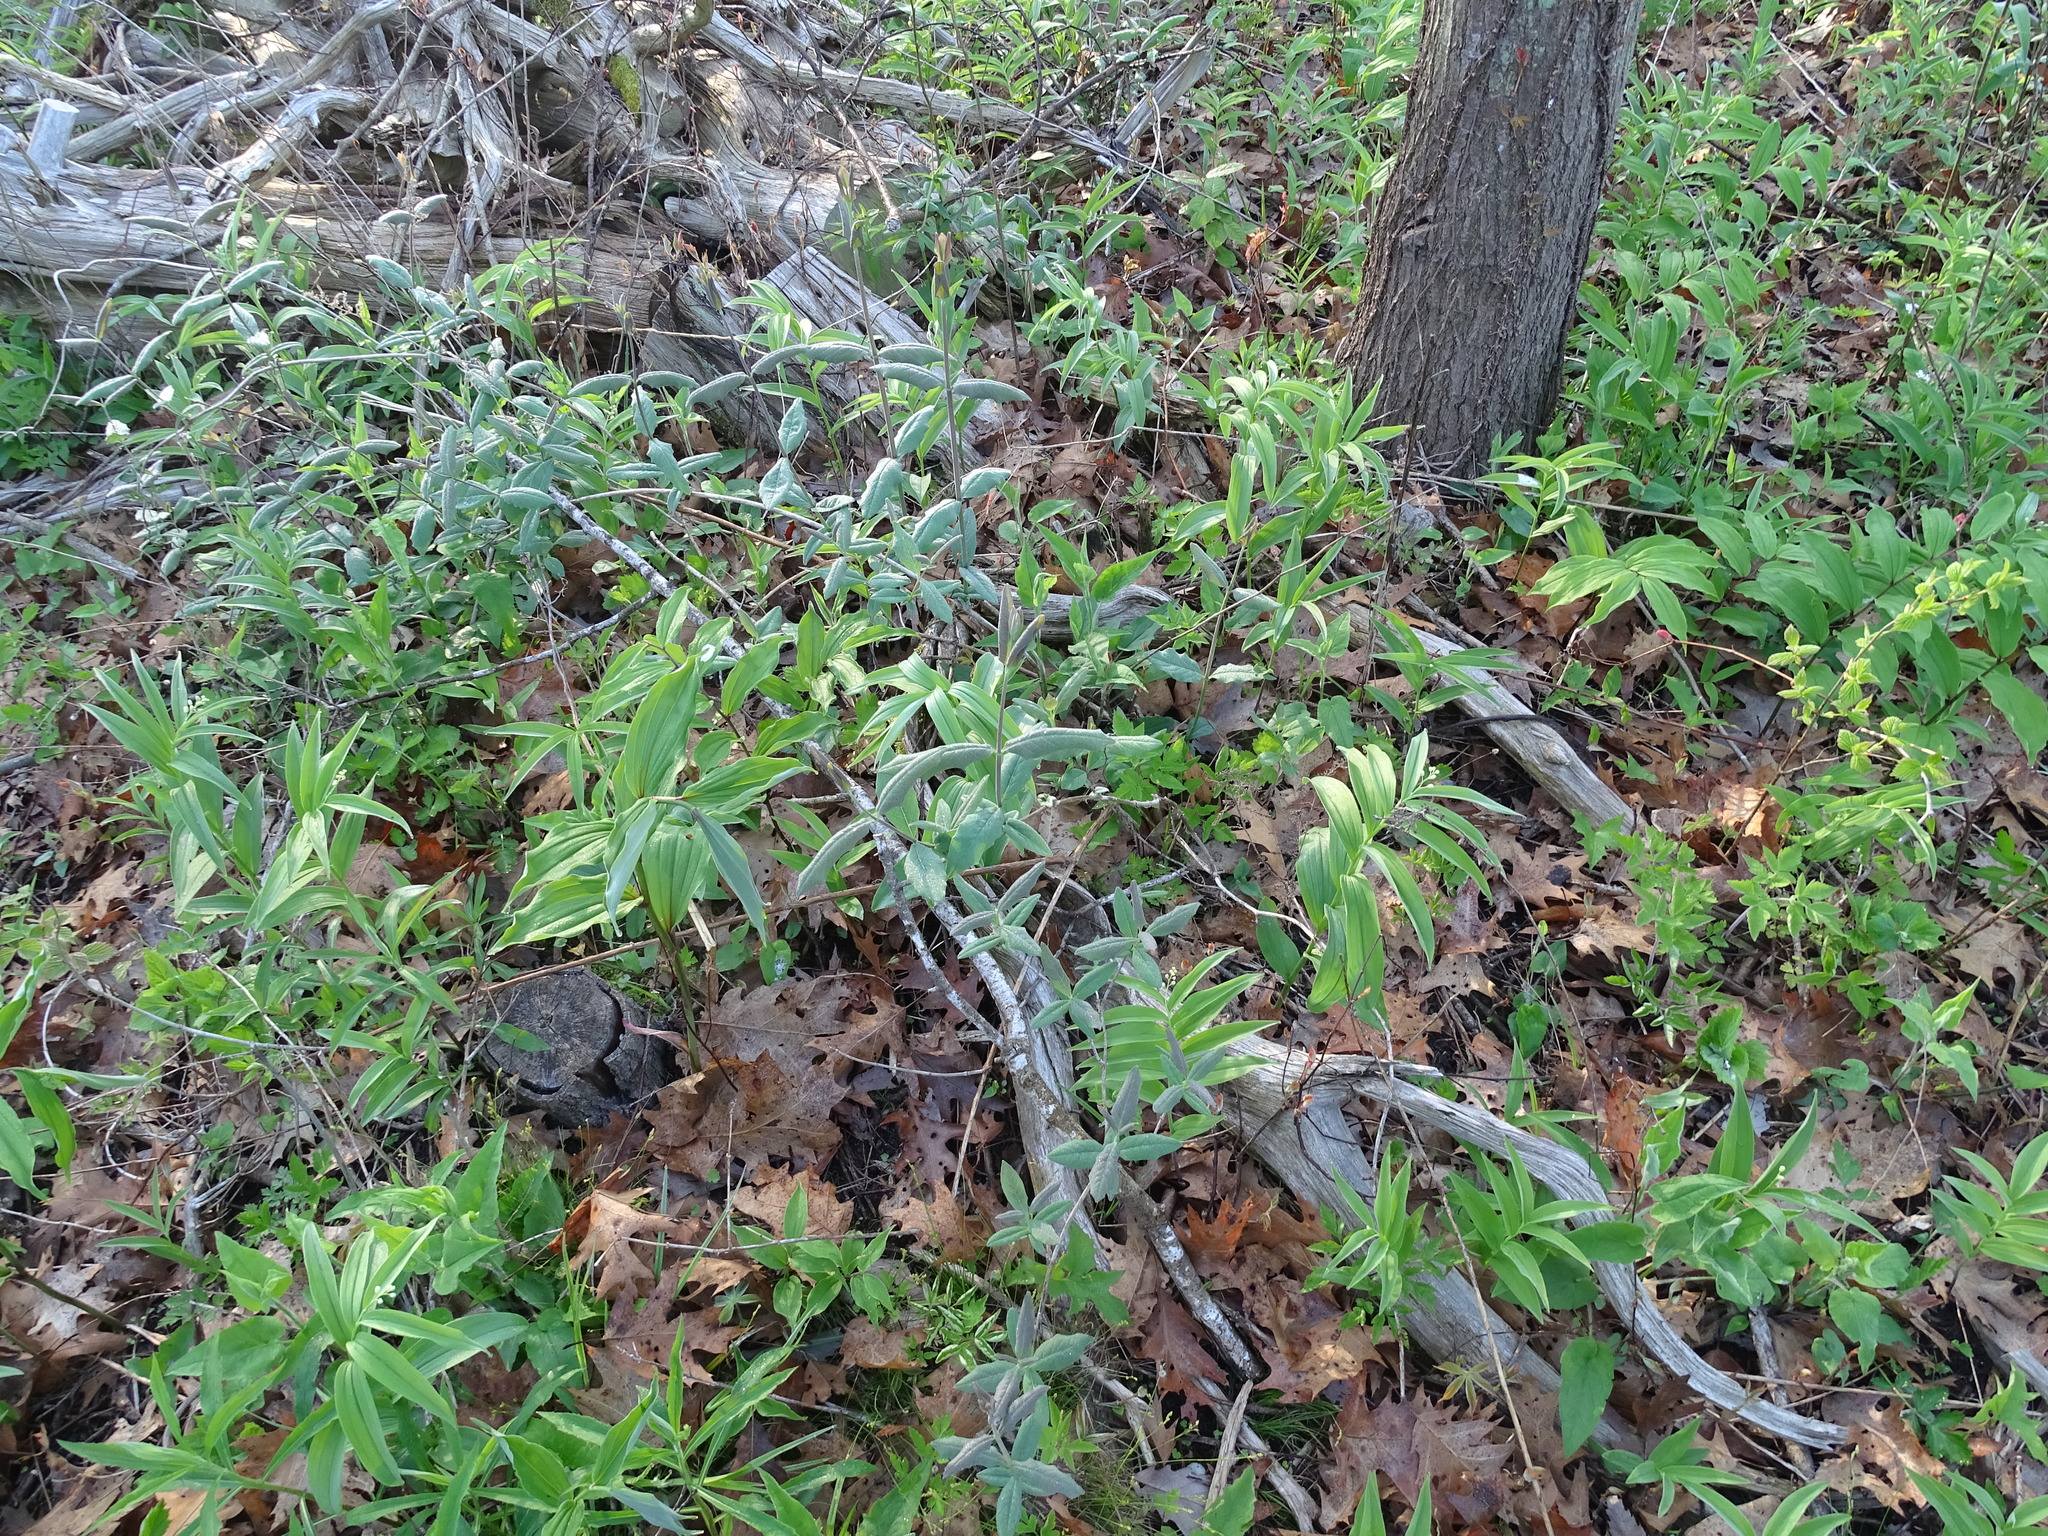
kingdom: Plantae
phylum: Tracheophyta
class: Magnoliopsida
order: Dipsacales
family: Caprifoliaceae
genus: Lonicera
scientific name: Lonicera dioica
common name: Limber honeysuckle
